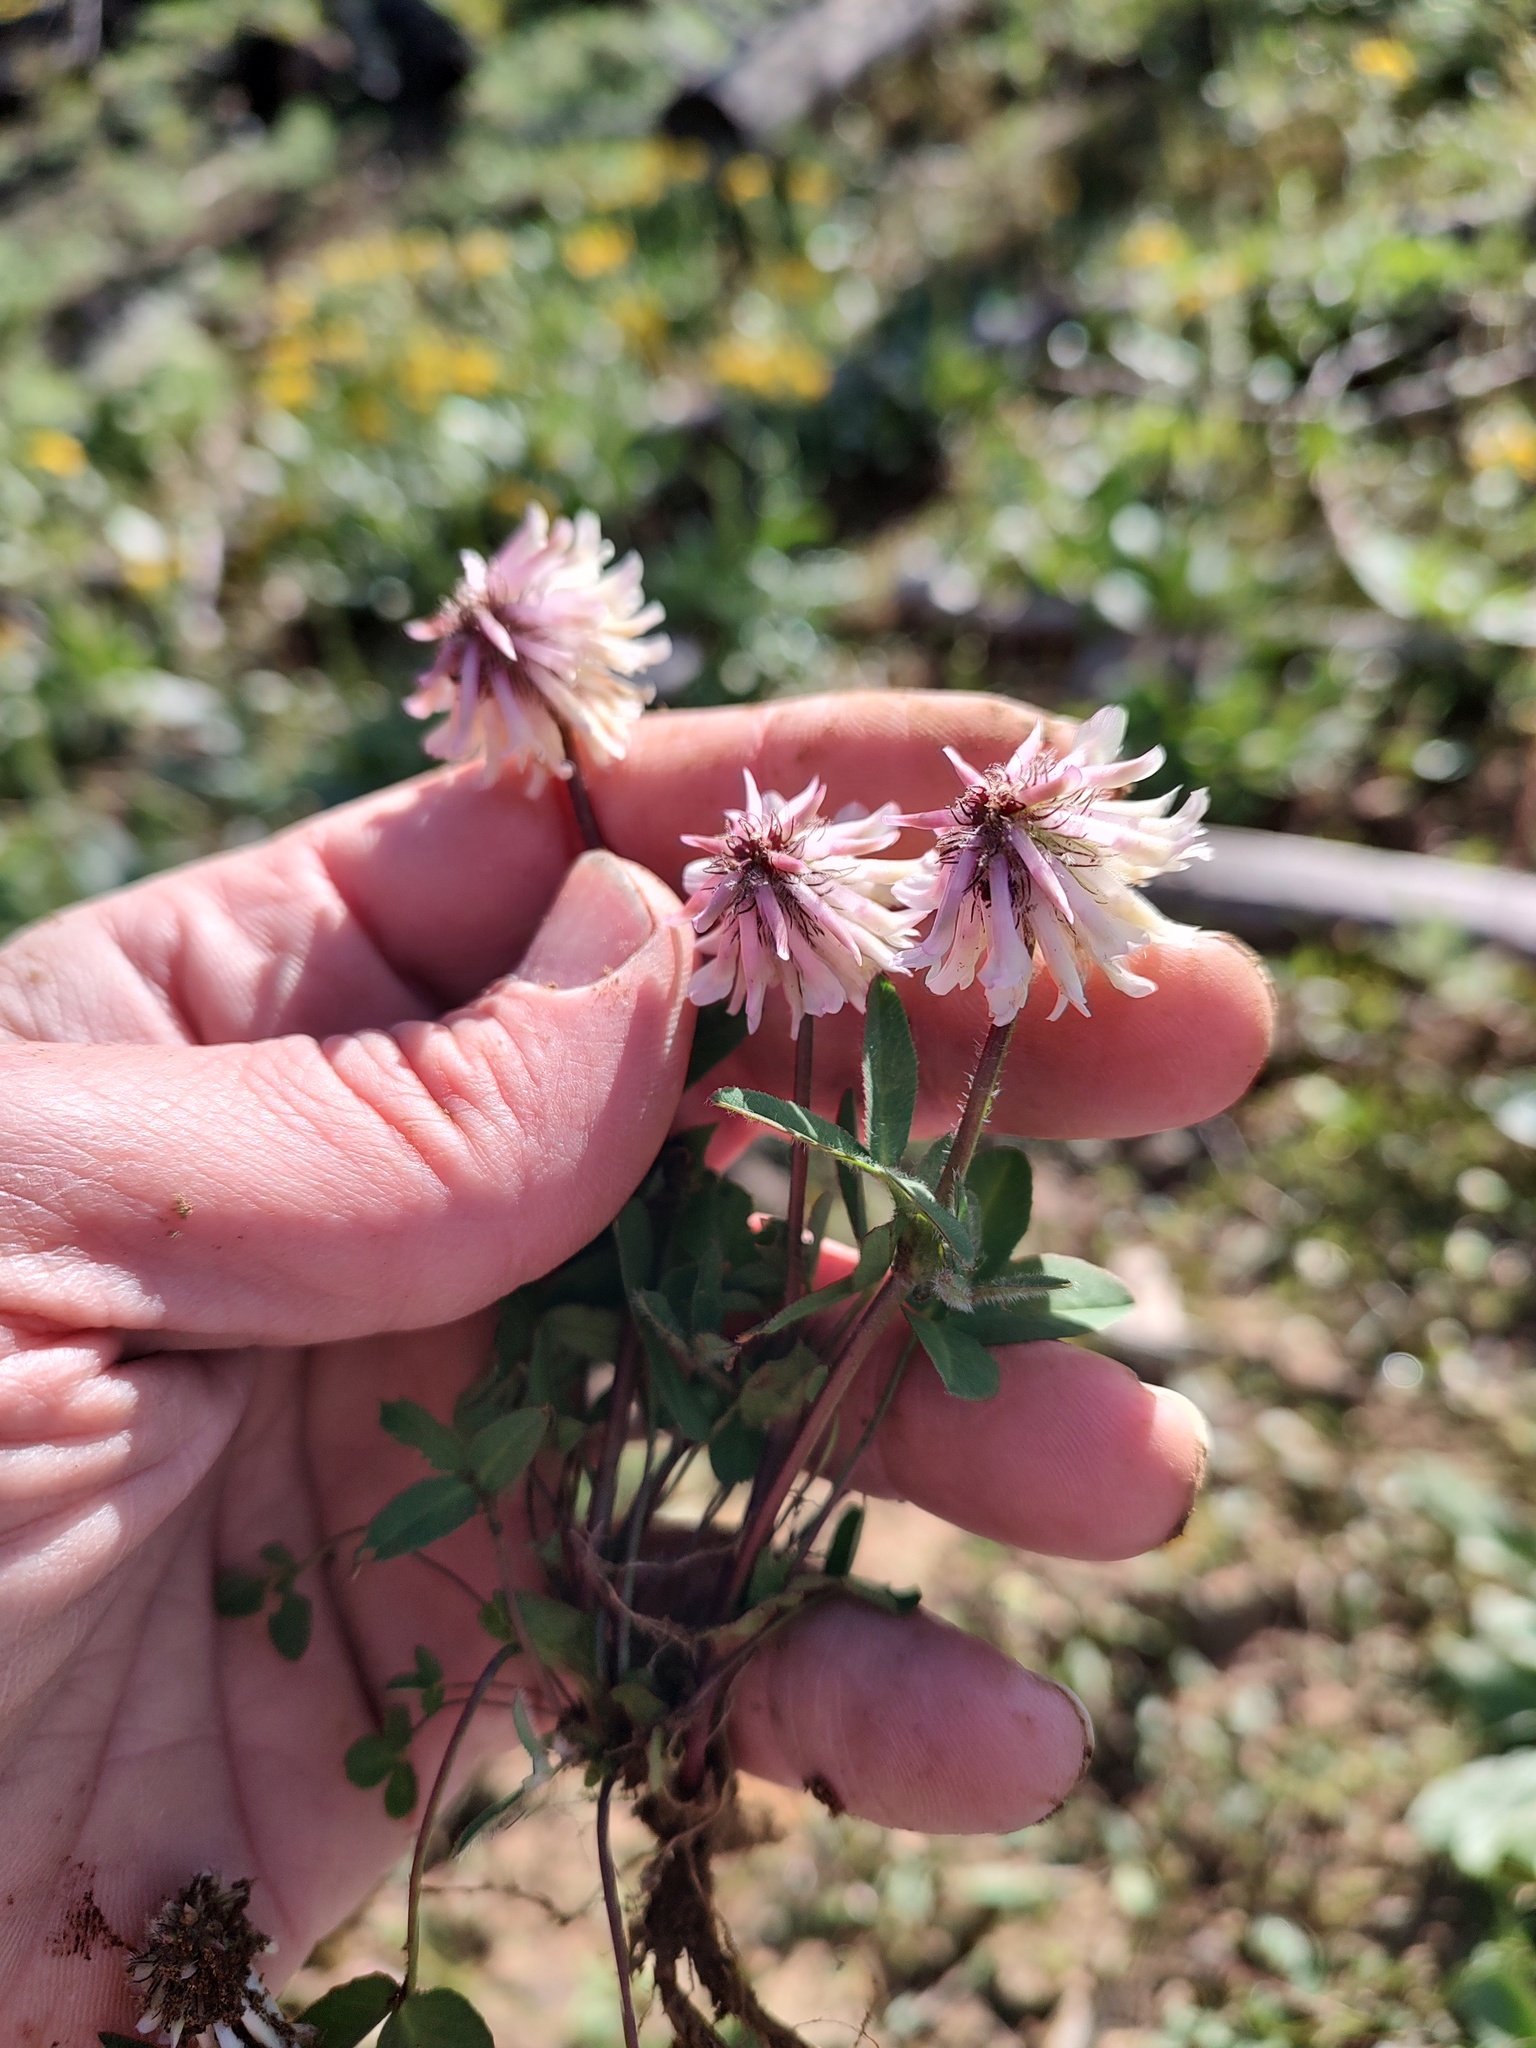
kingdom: Plantae
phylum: Tracheophyta
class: Magnoliopsida
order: Fabales
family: Fabaceae
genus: Trifolium
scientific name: Trifolium eriocephalum
